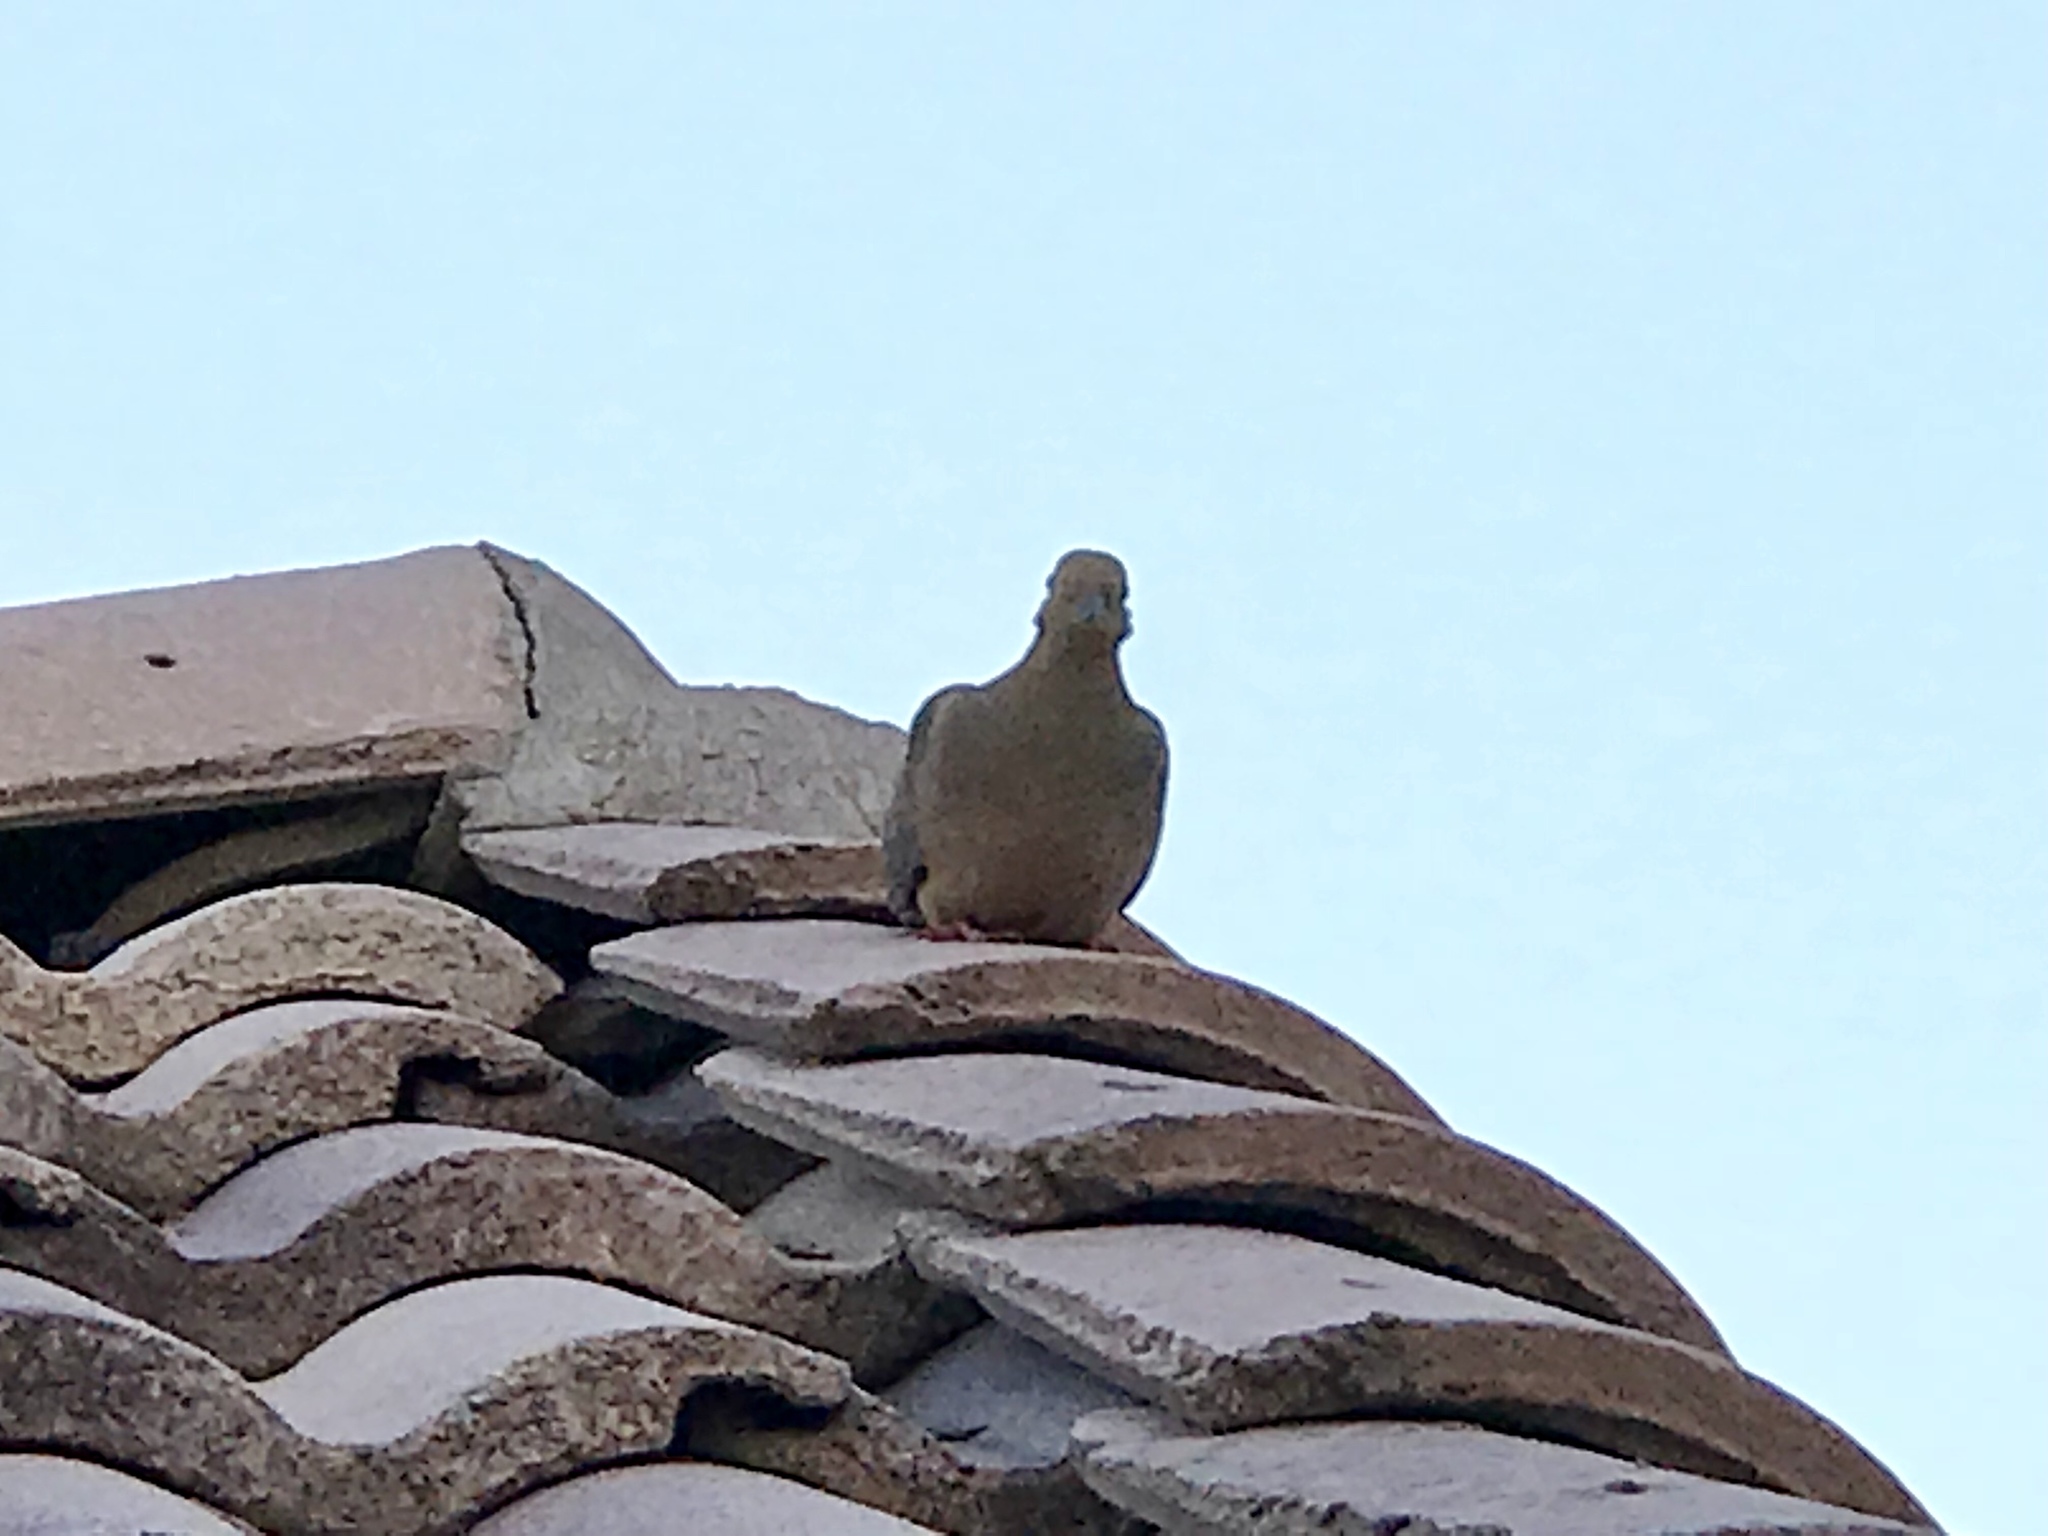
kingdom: Animalia
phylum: Chordata
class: Aves
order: Columbiformes
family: Columbidae
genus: Zenaida
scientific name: Zenaida macroura
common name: Mourning dove
